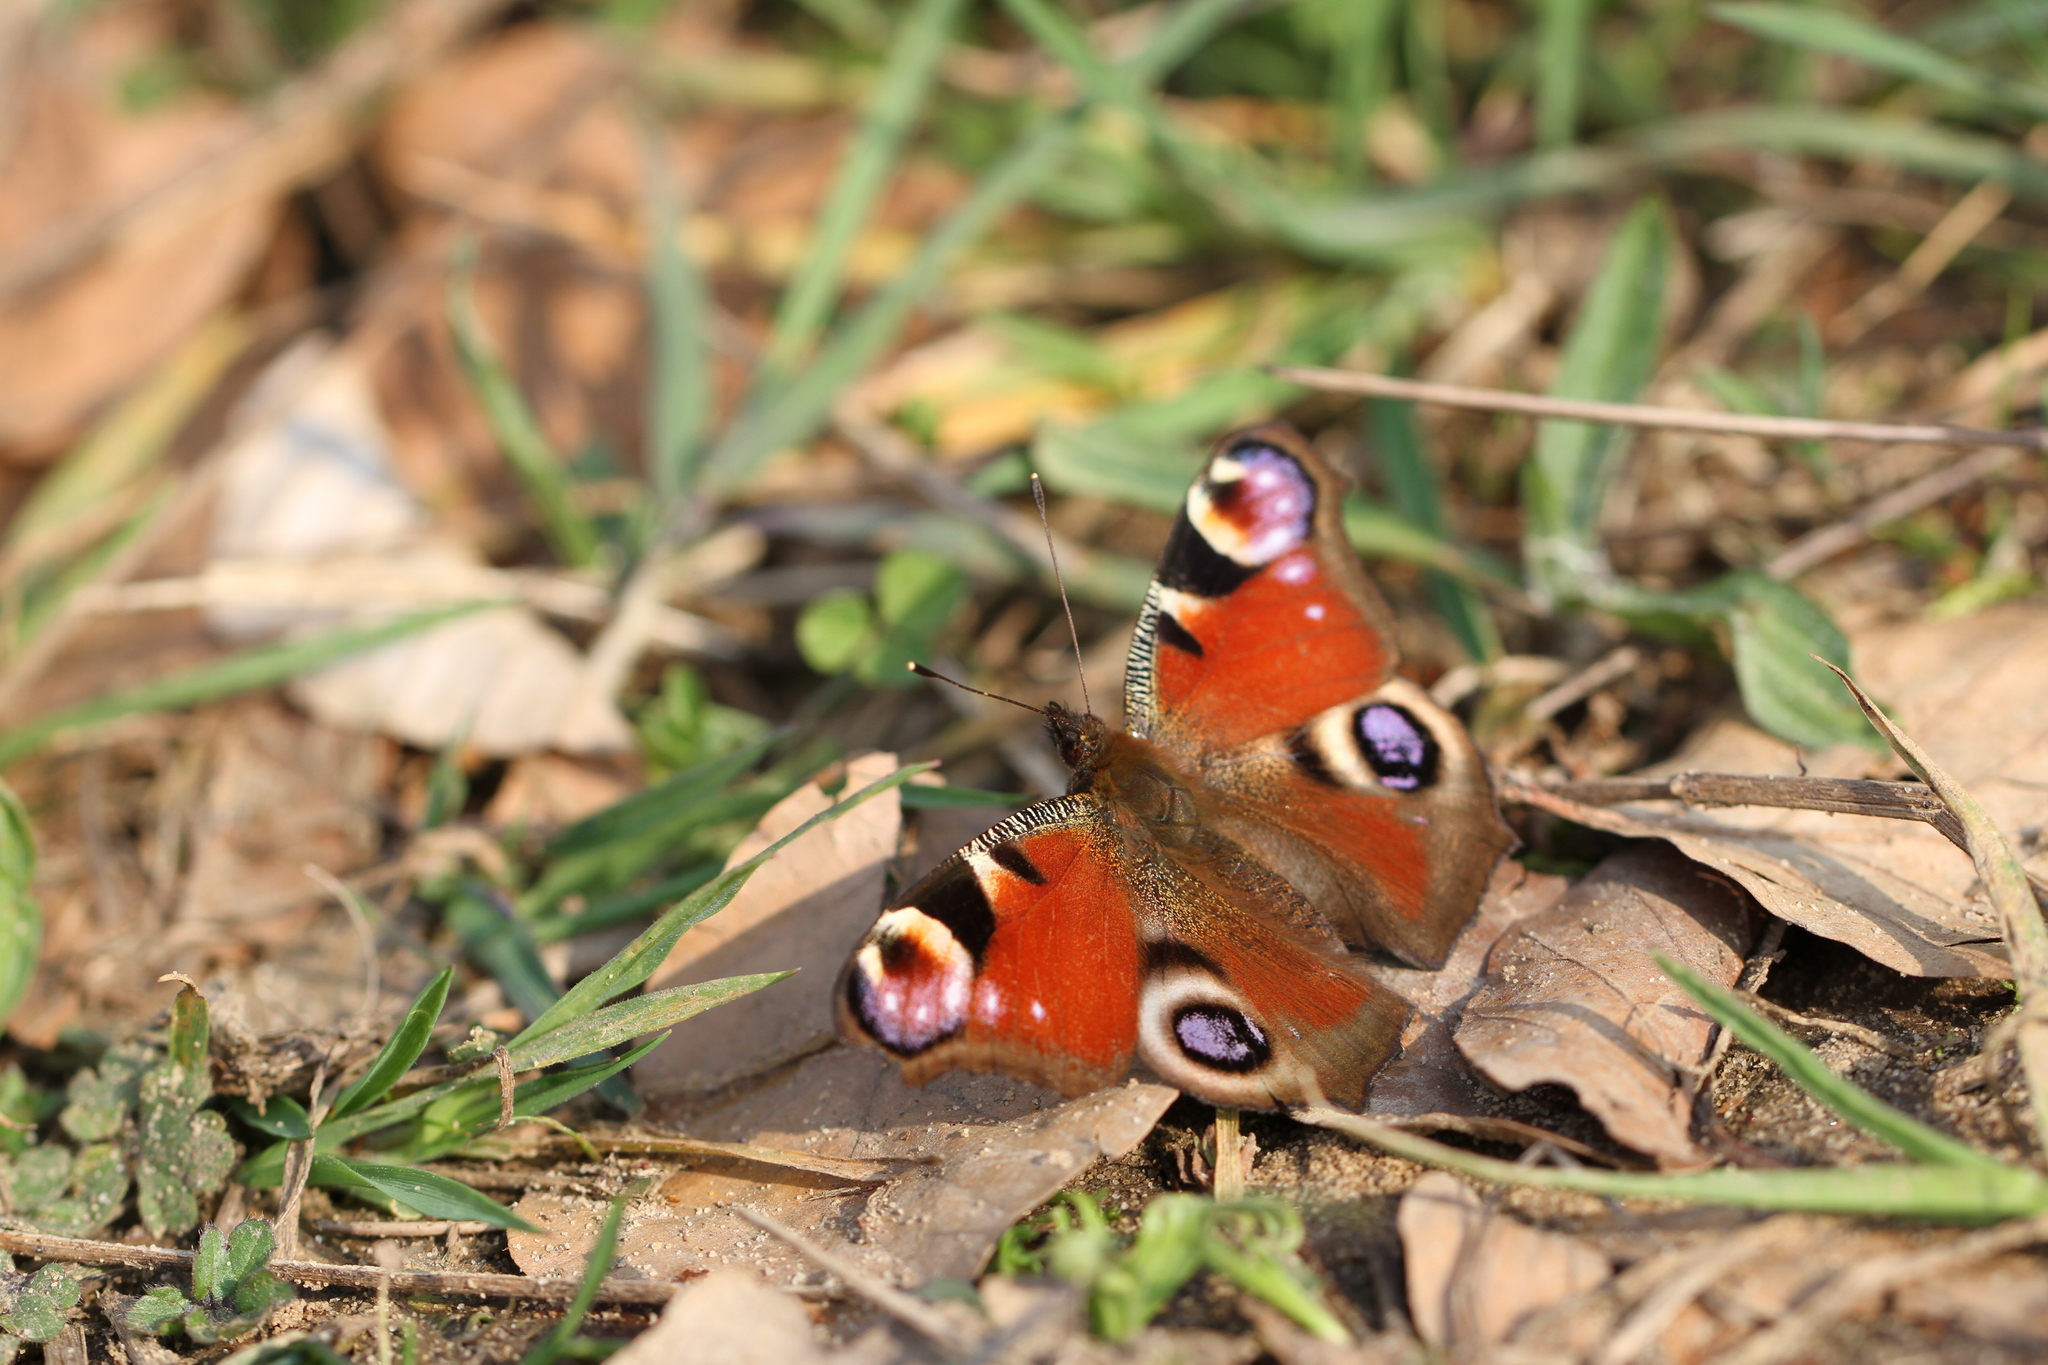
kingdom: Animalia
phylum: Arthropoda
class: Insecta
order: Lepidoptera
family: Nymphalidae
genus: Aglais
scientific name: Aglais io
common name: Peacock
